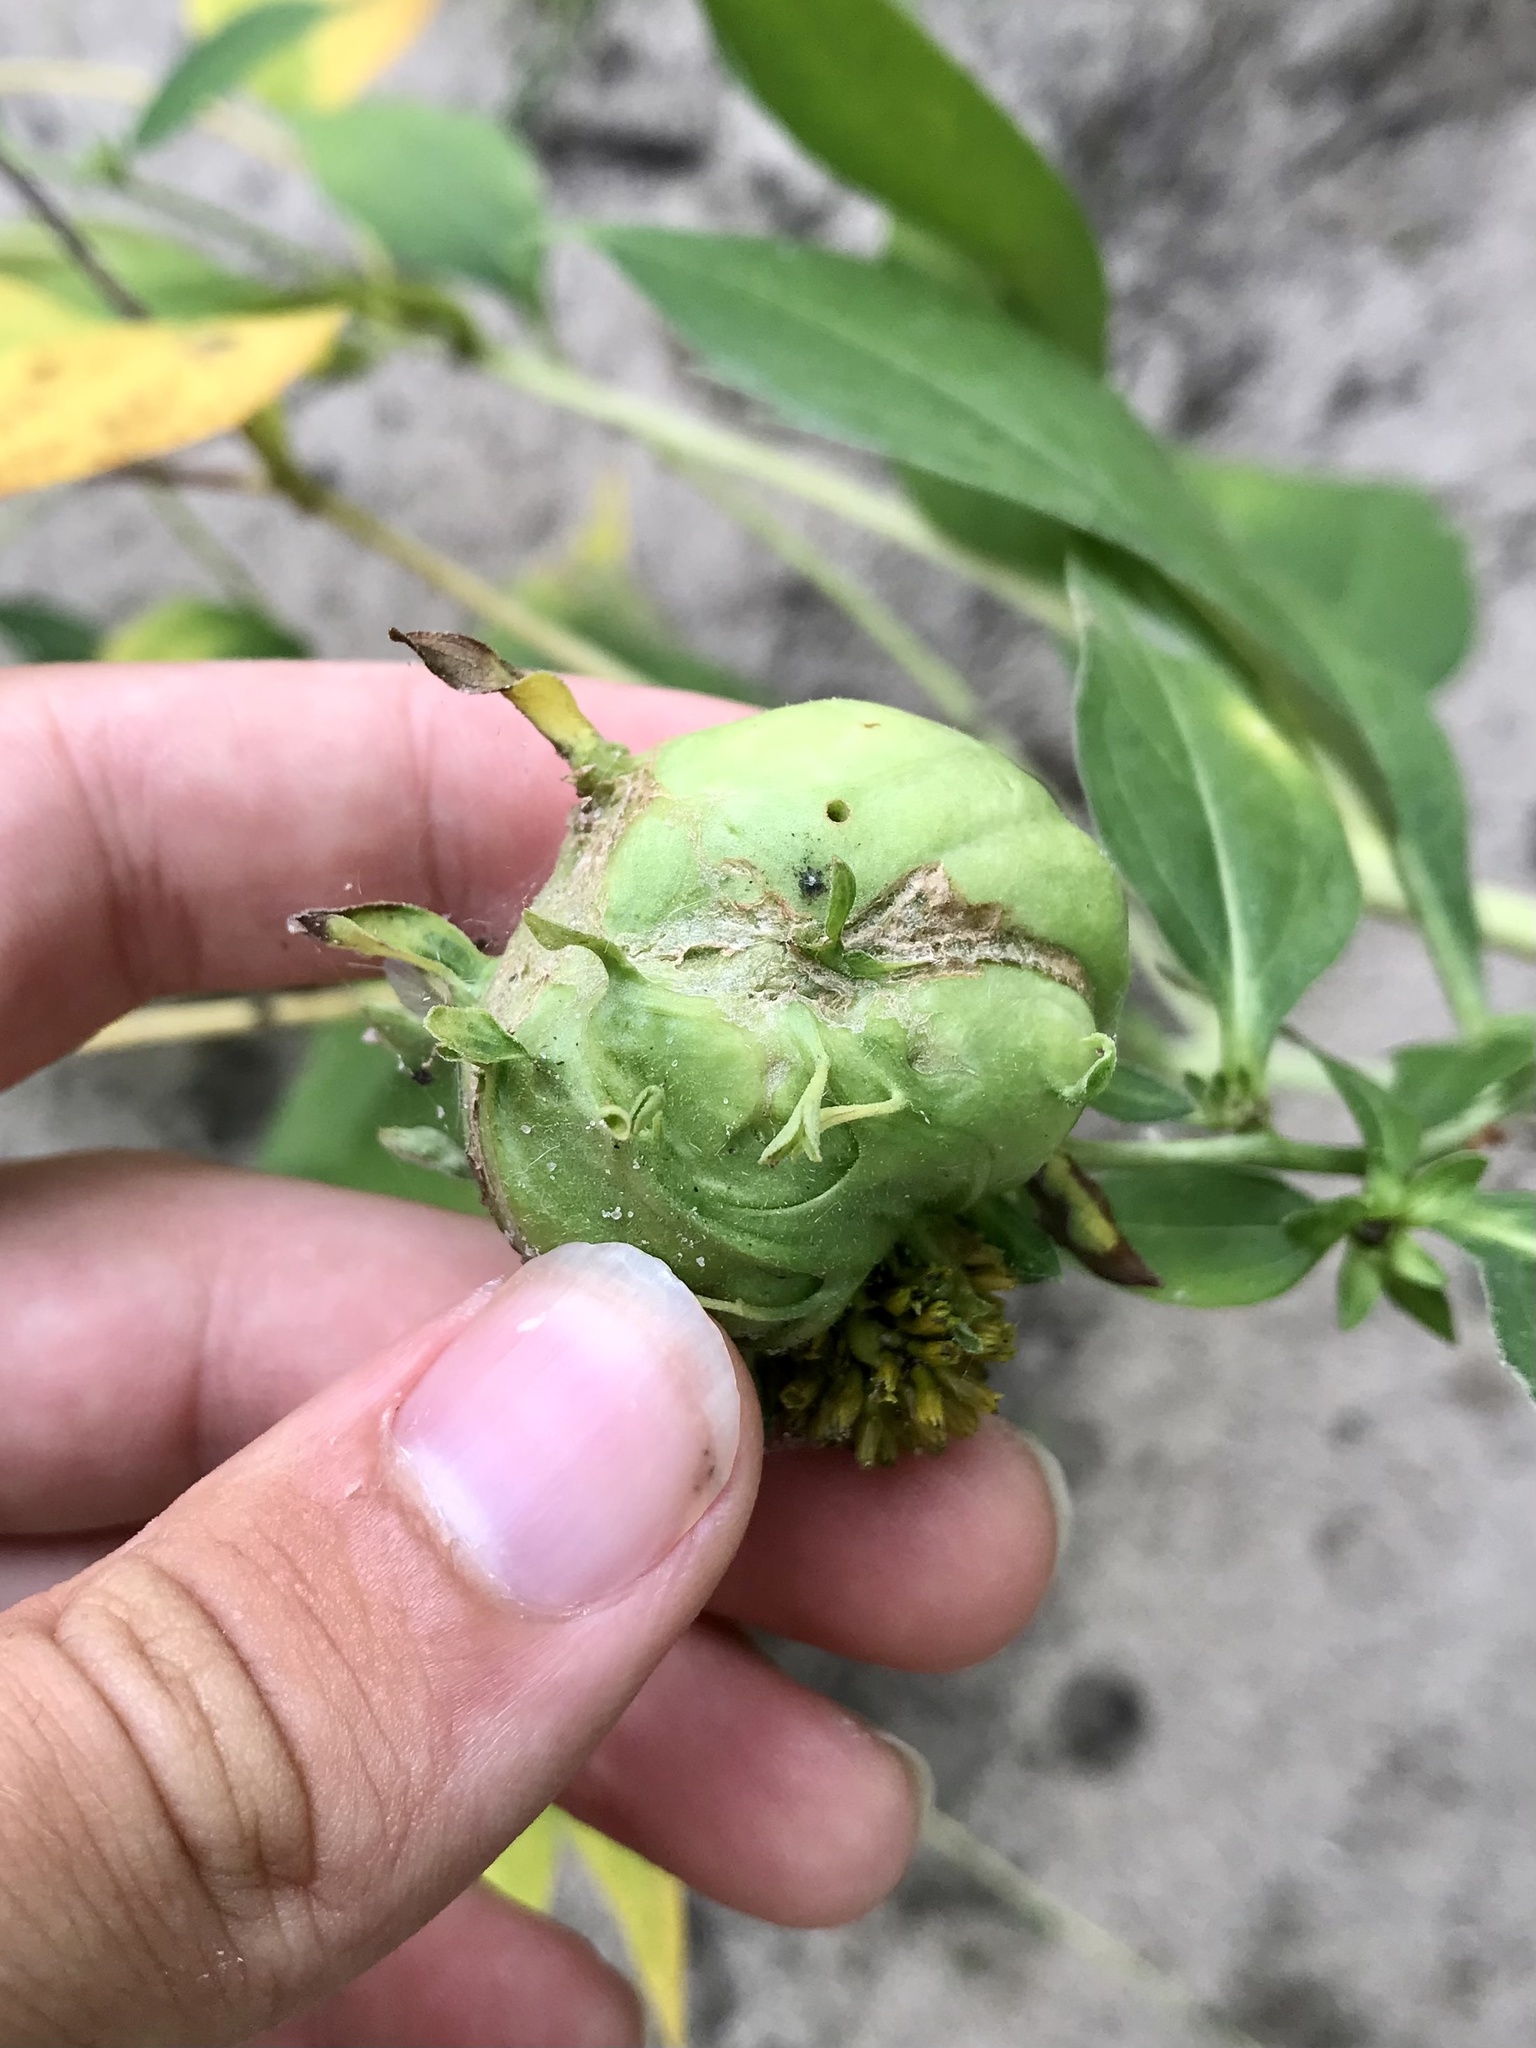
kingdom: Animalia
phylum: Arthropoda
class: Insecta
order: Diptera
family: Cecidomyiidae
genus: Asphondylia
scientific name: Asphondylia rudbeckiaeconspicua
